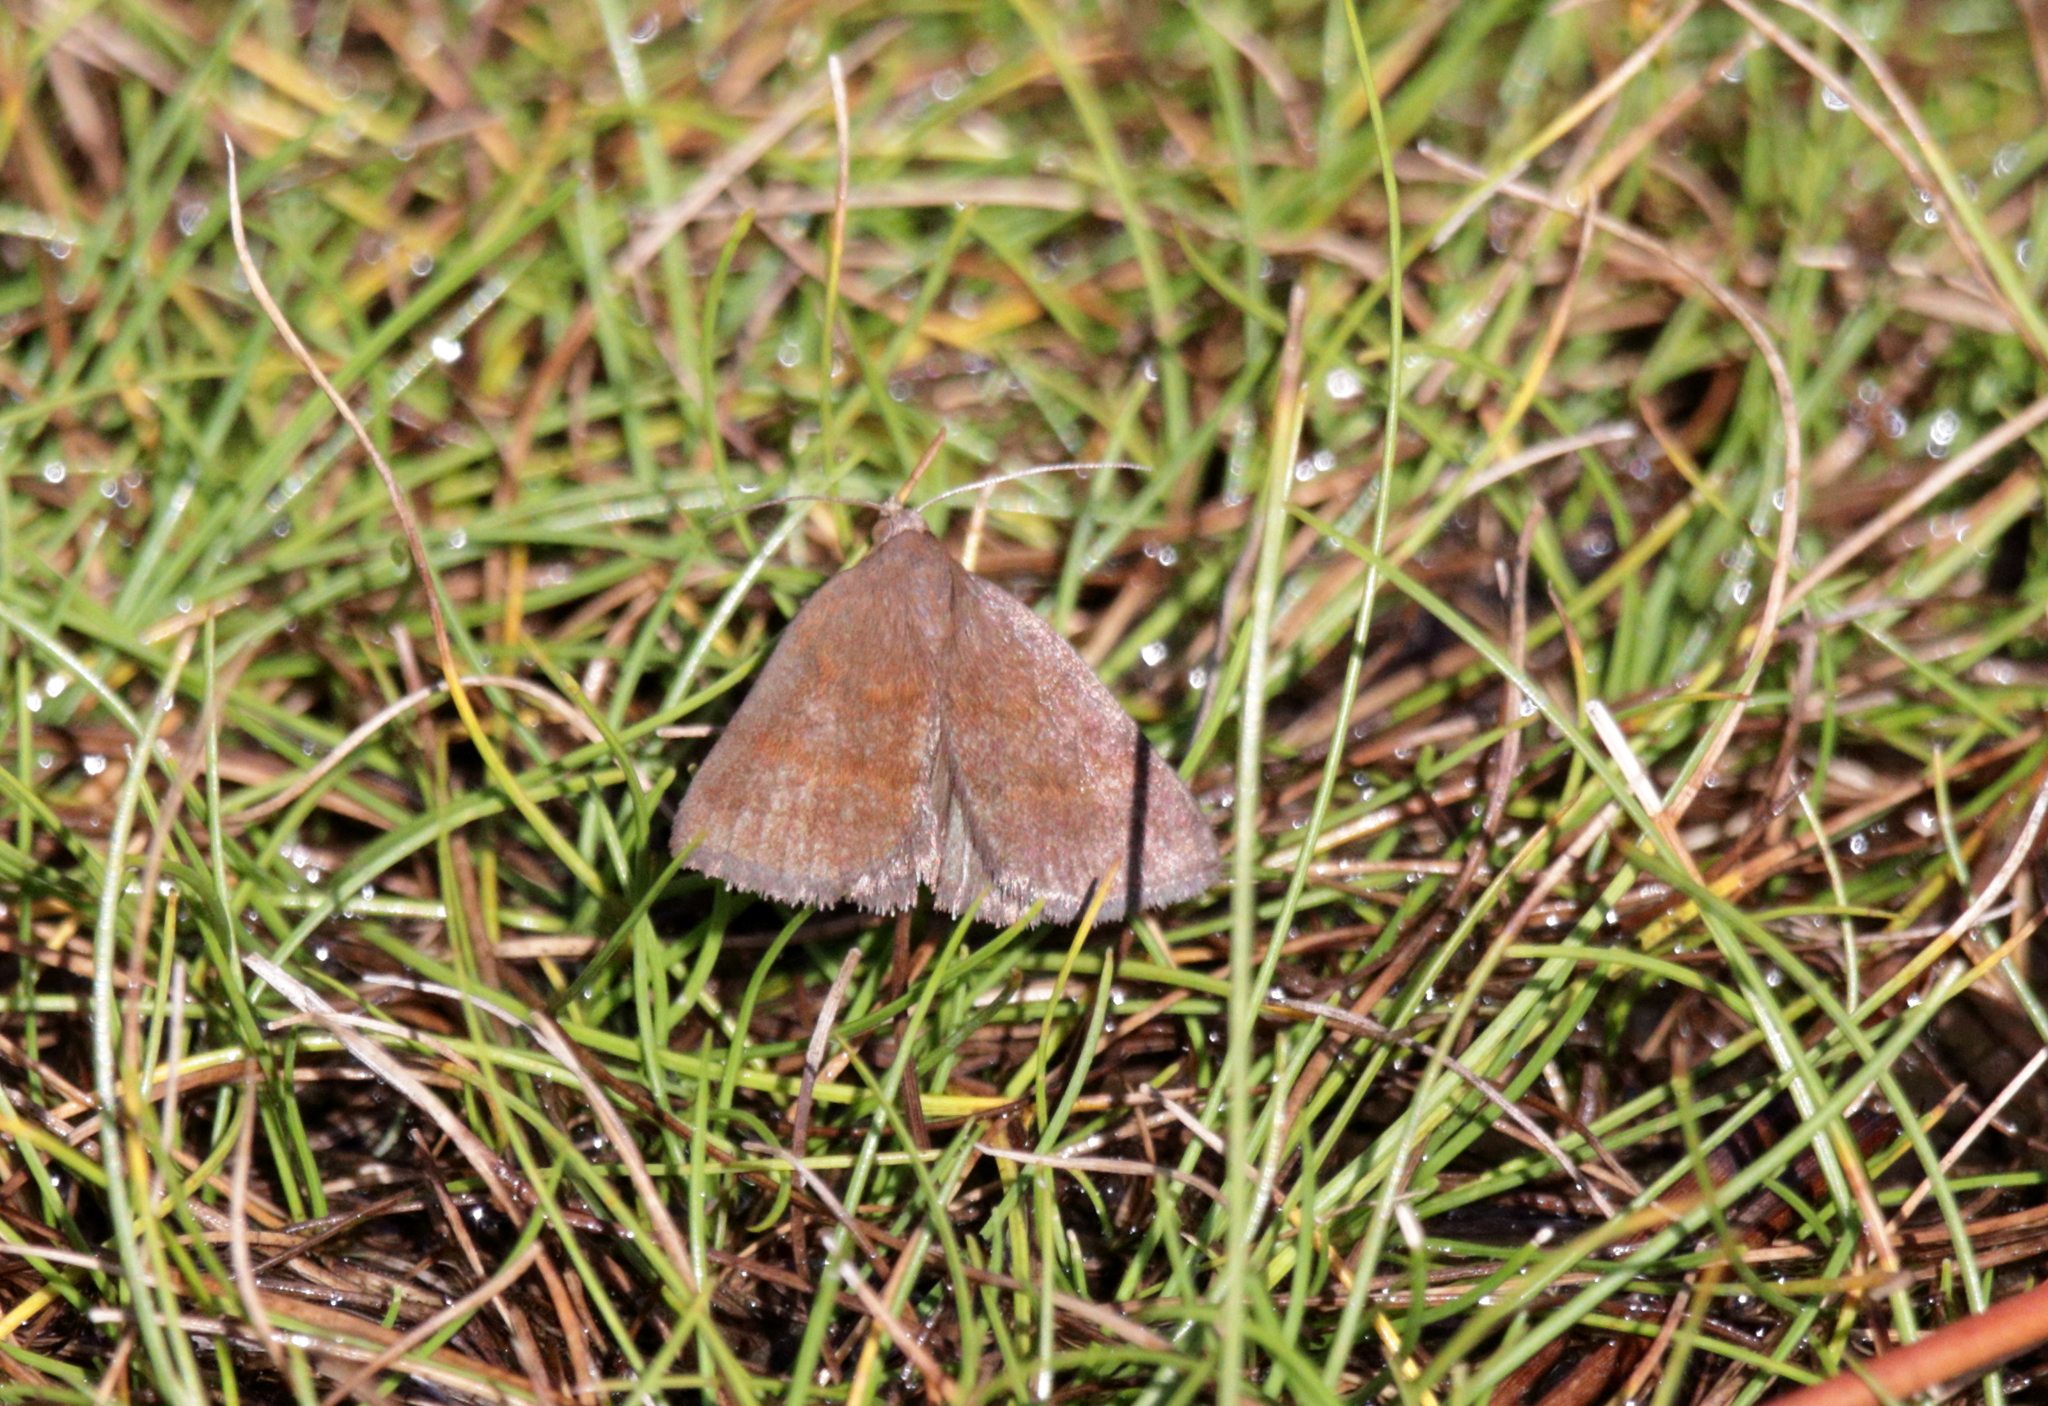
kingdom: Animalia
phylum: Arthropoda
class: Insecta
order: Lepidoptera
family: Erebidae
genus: Argyrostrotis
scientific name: Argyrostrotis deleta
